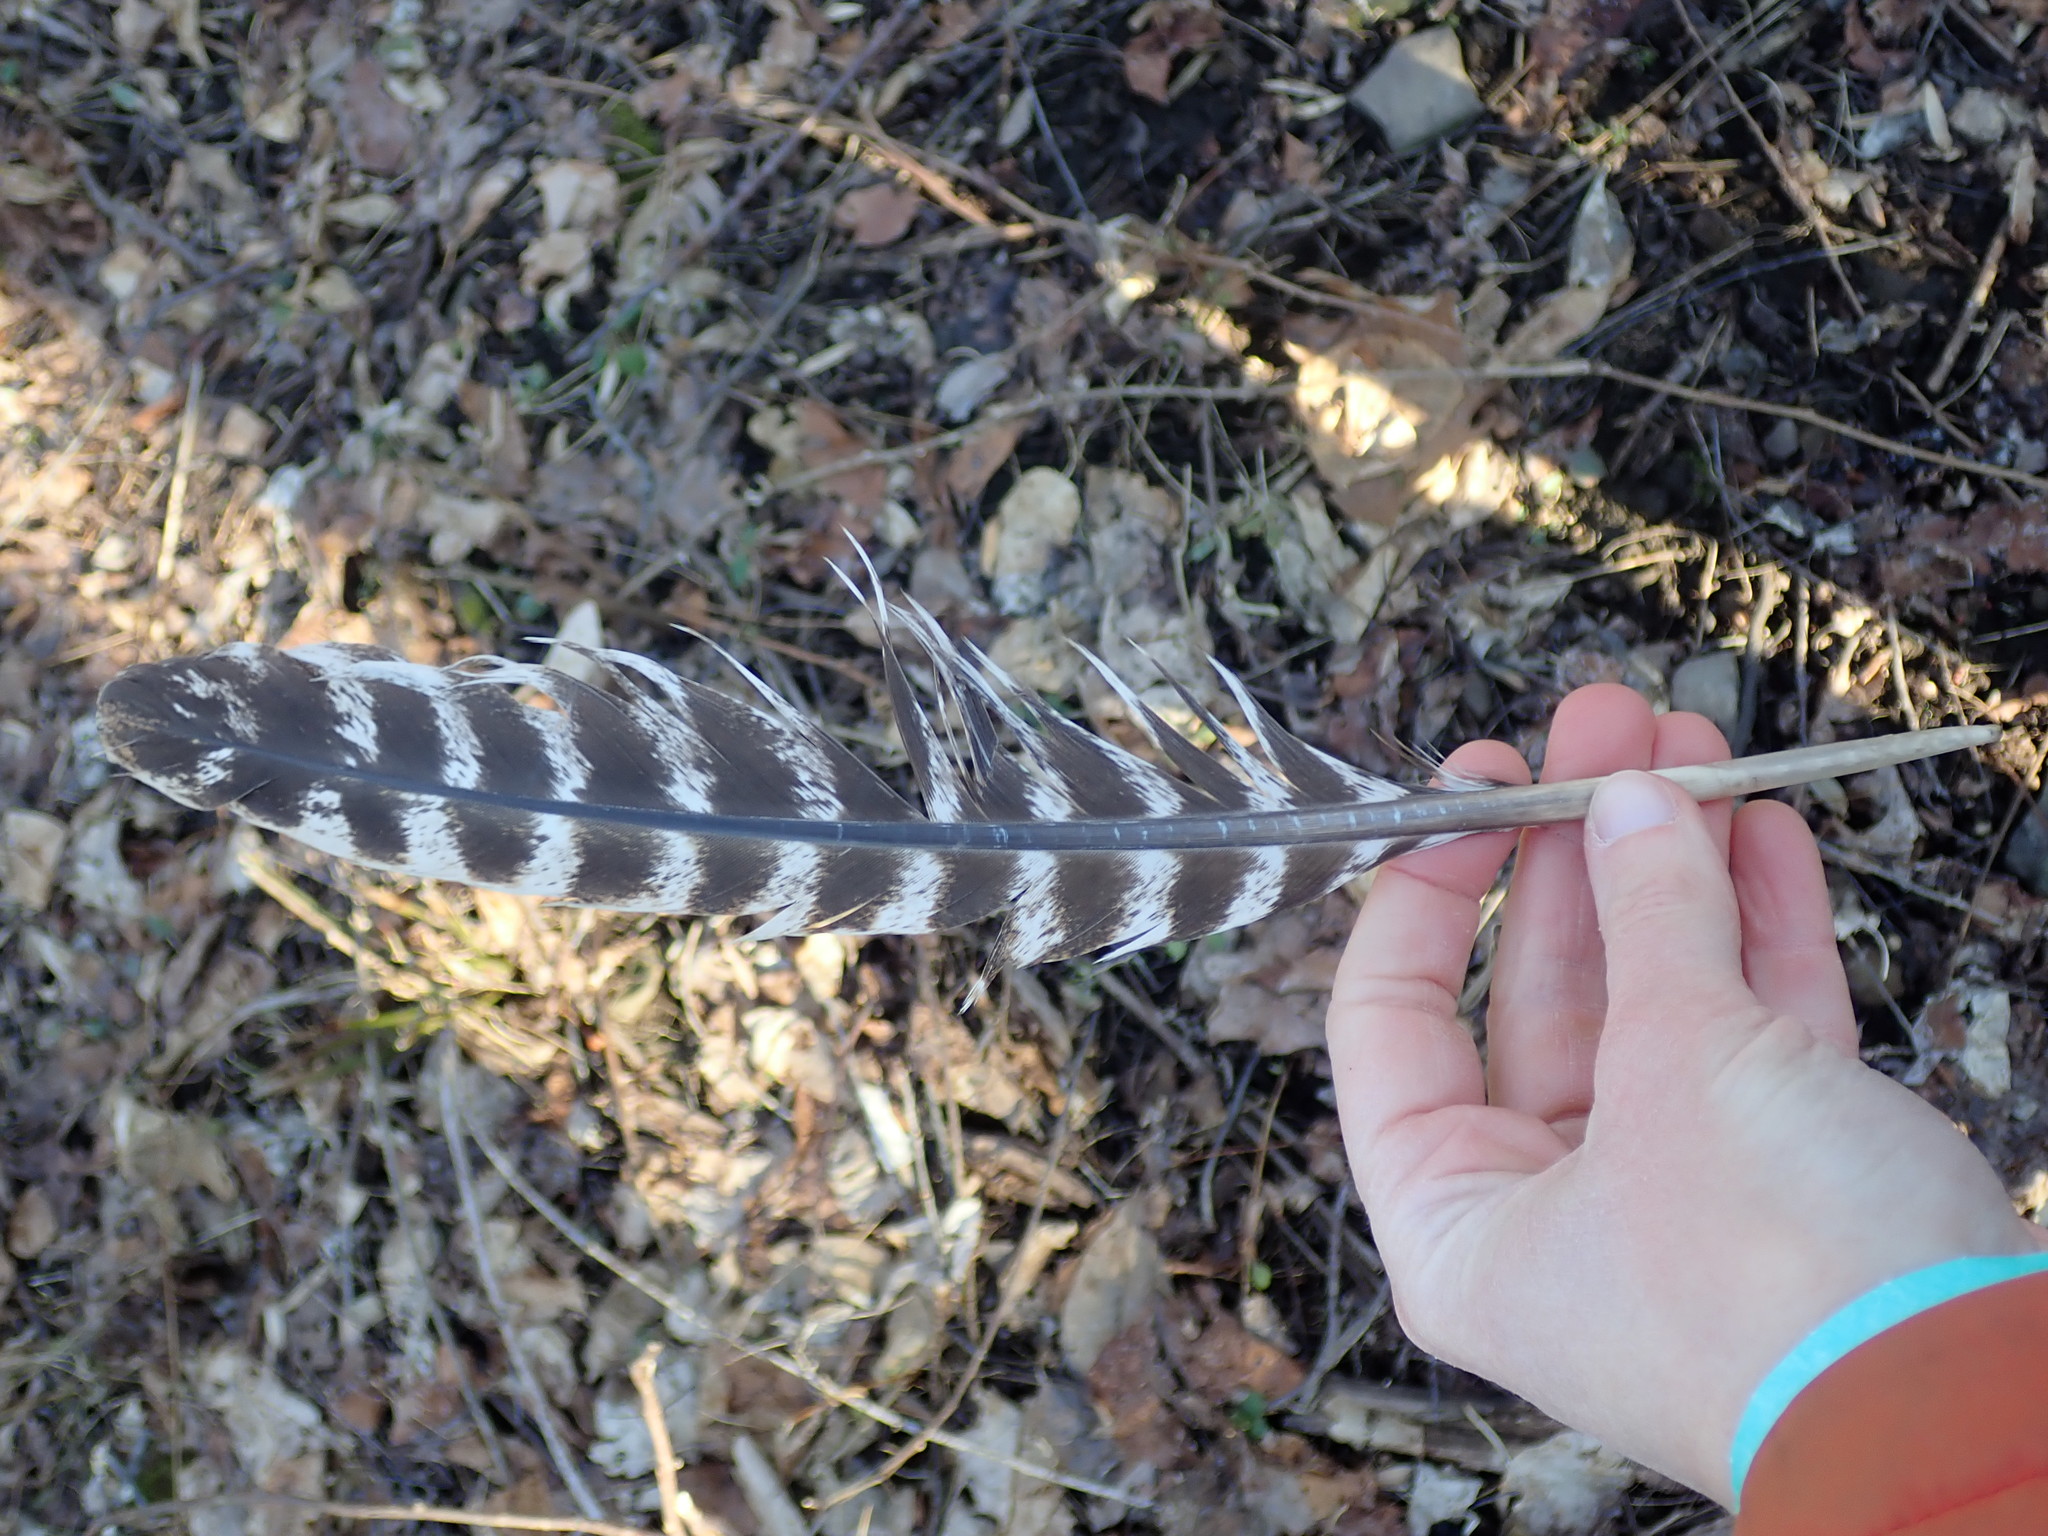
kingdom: Animalia
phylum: Chordata
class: Aves
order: Galliformes
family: Phasianidae
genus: Meleagris
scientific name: Meleagris gallopavo
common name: Wild turkey
